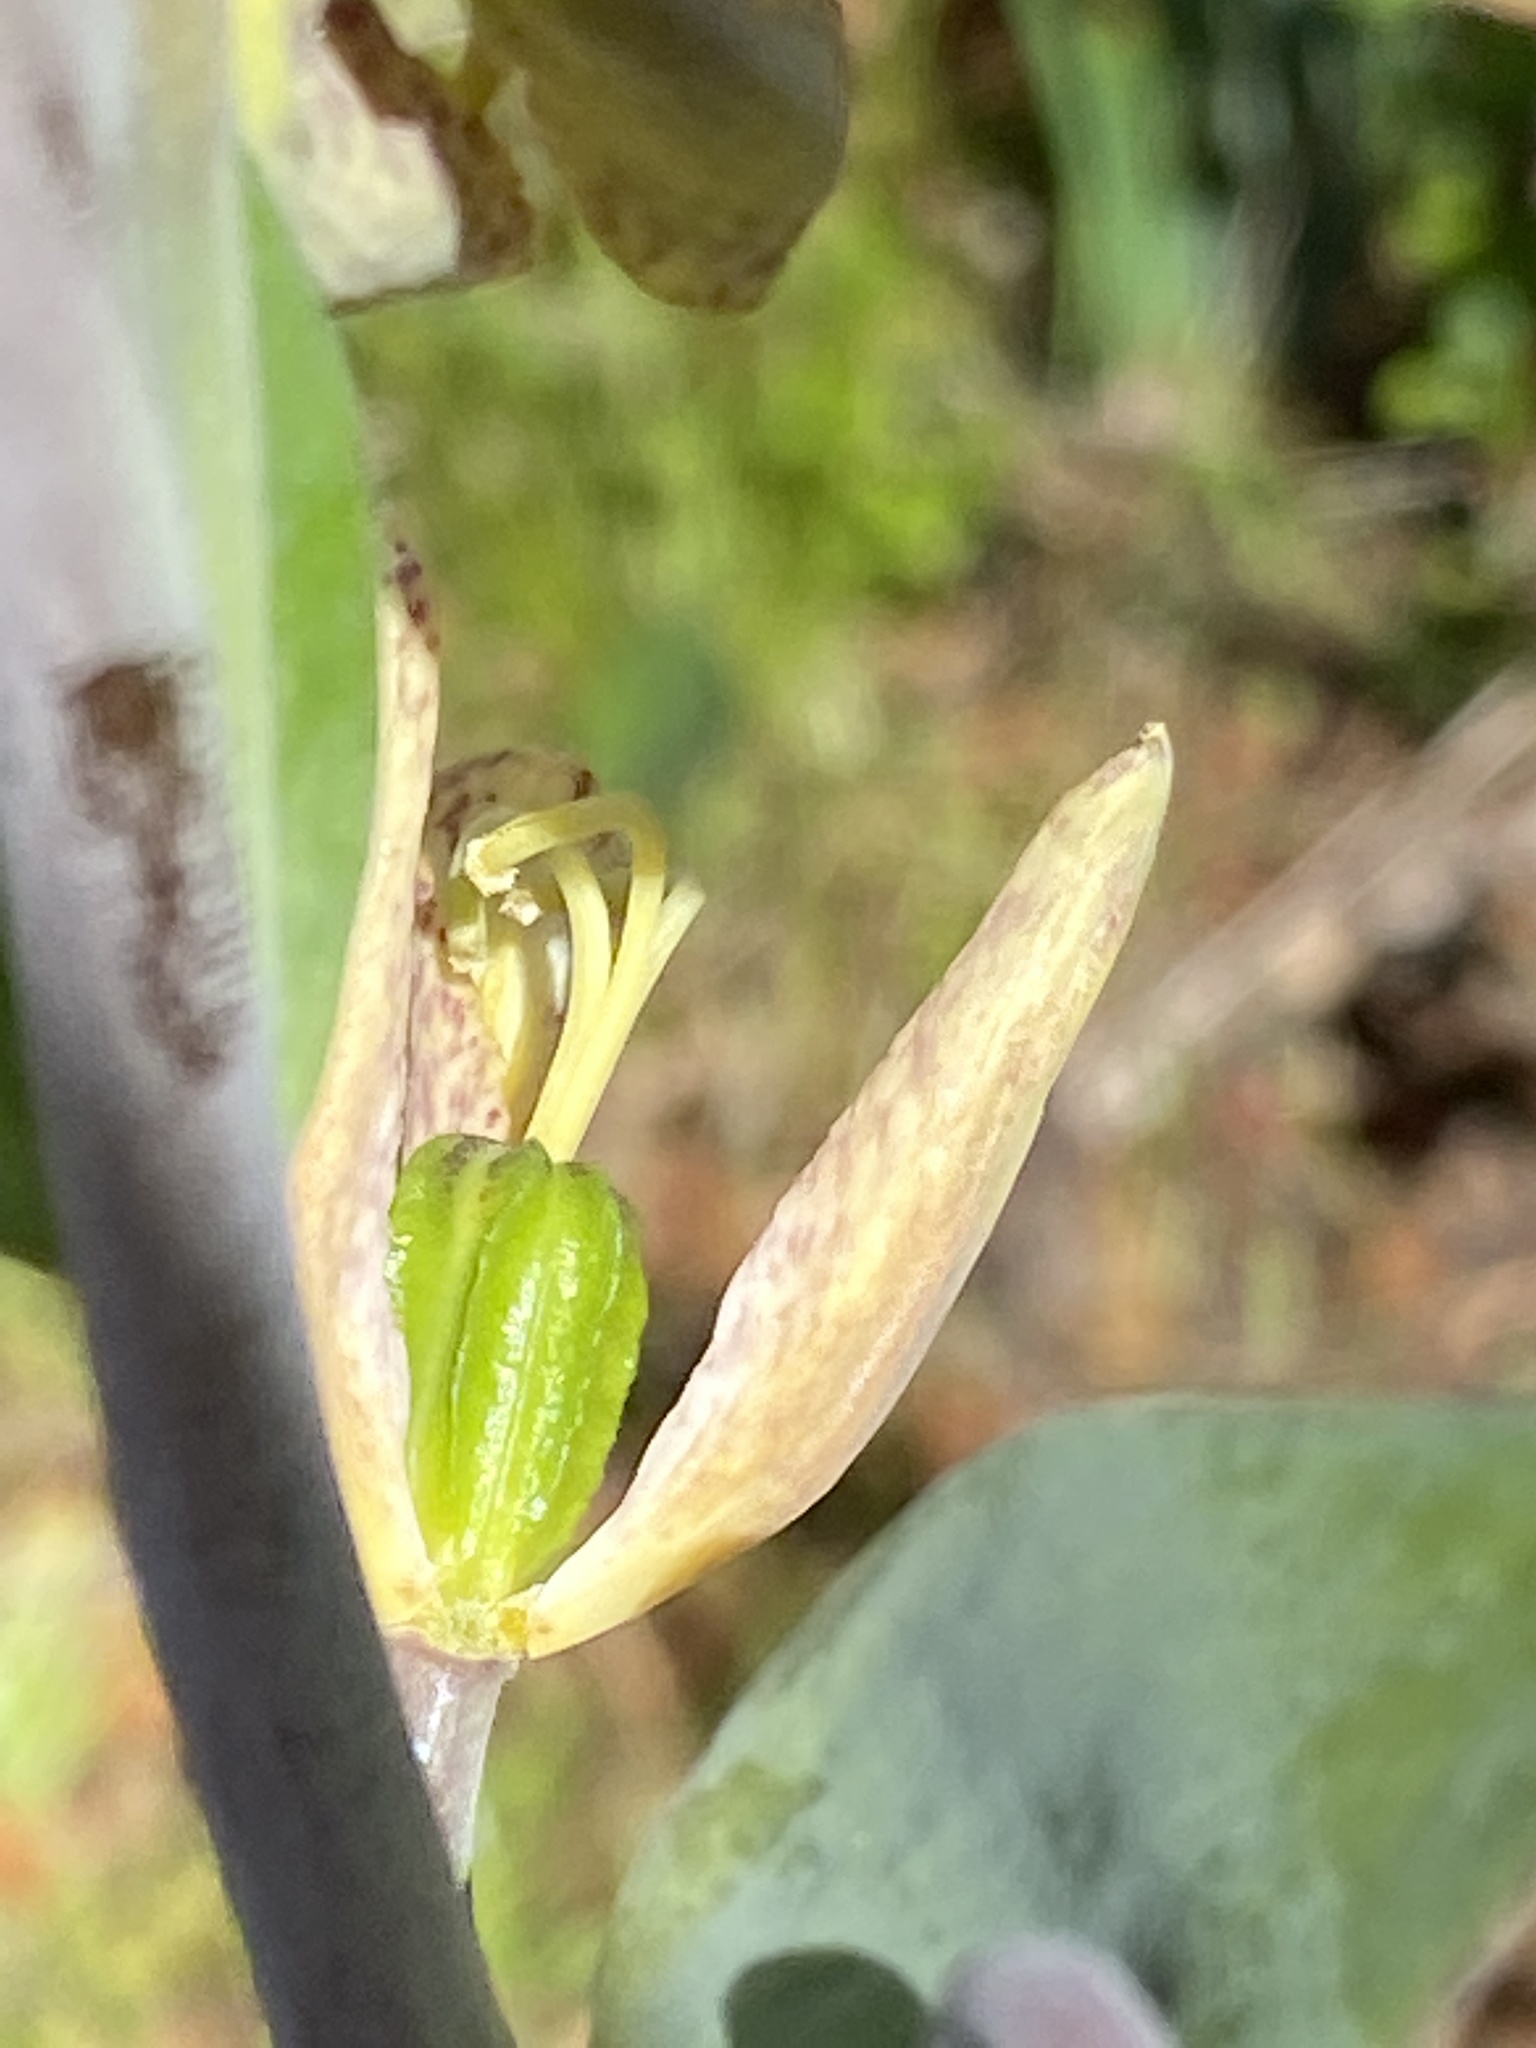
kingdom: Plantae
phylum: Tracheophyta
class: Liliopsida
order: Liliales
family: Liliaceae
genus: Fritillaria
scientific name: Fritillaria affinis
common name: Ojai fritillary
